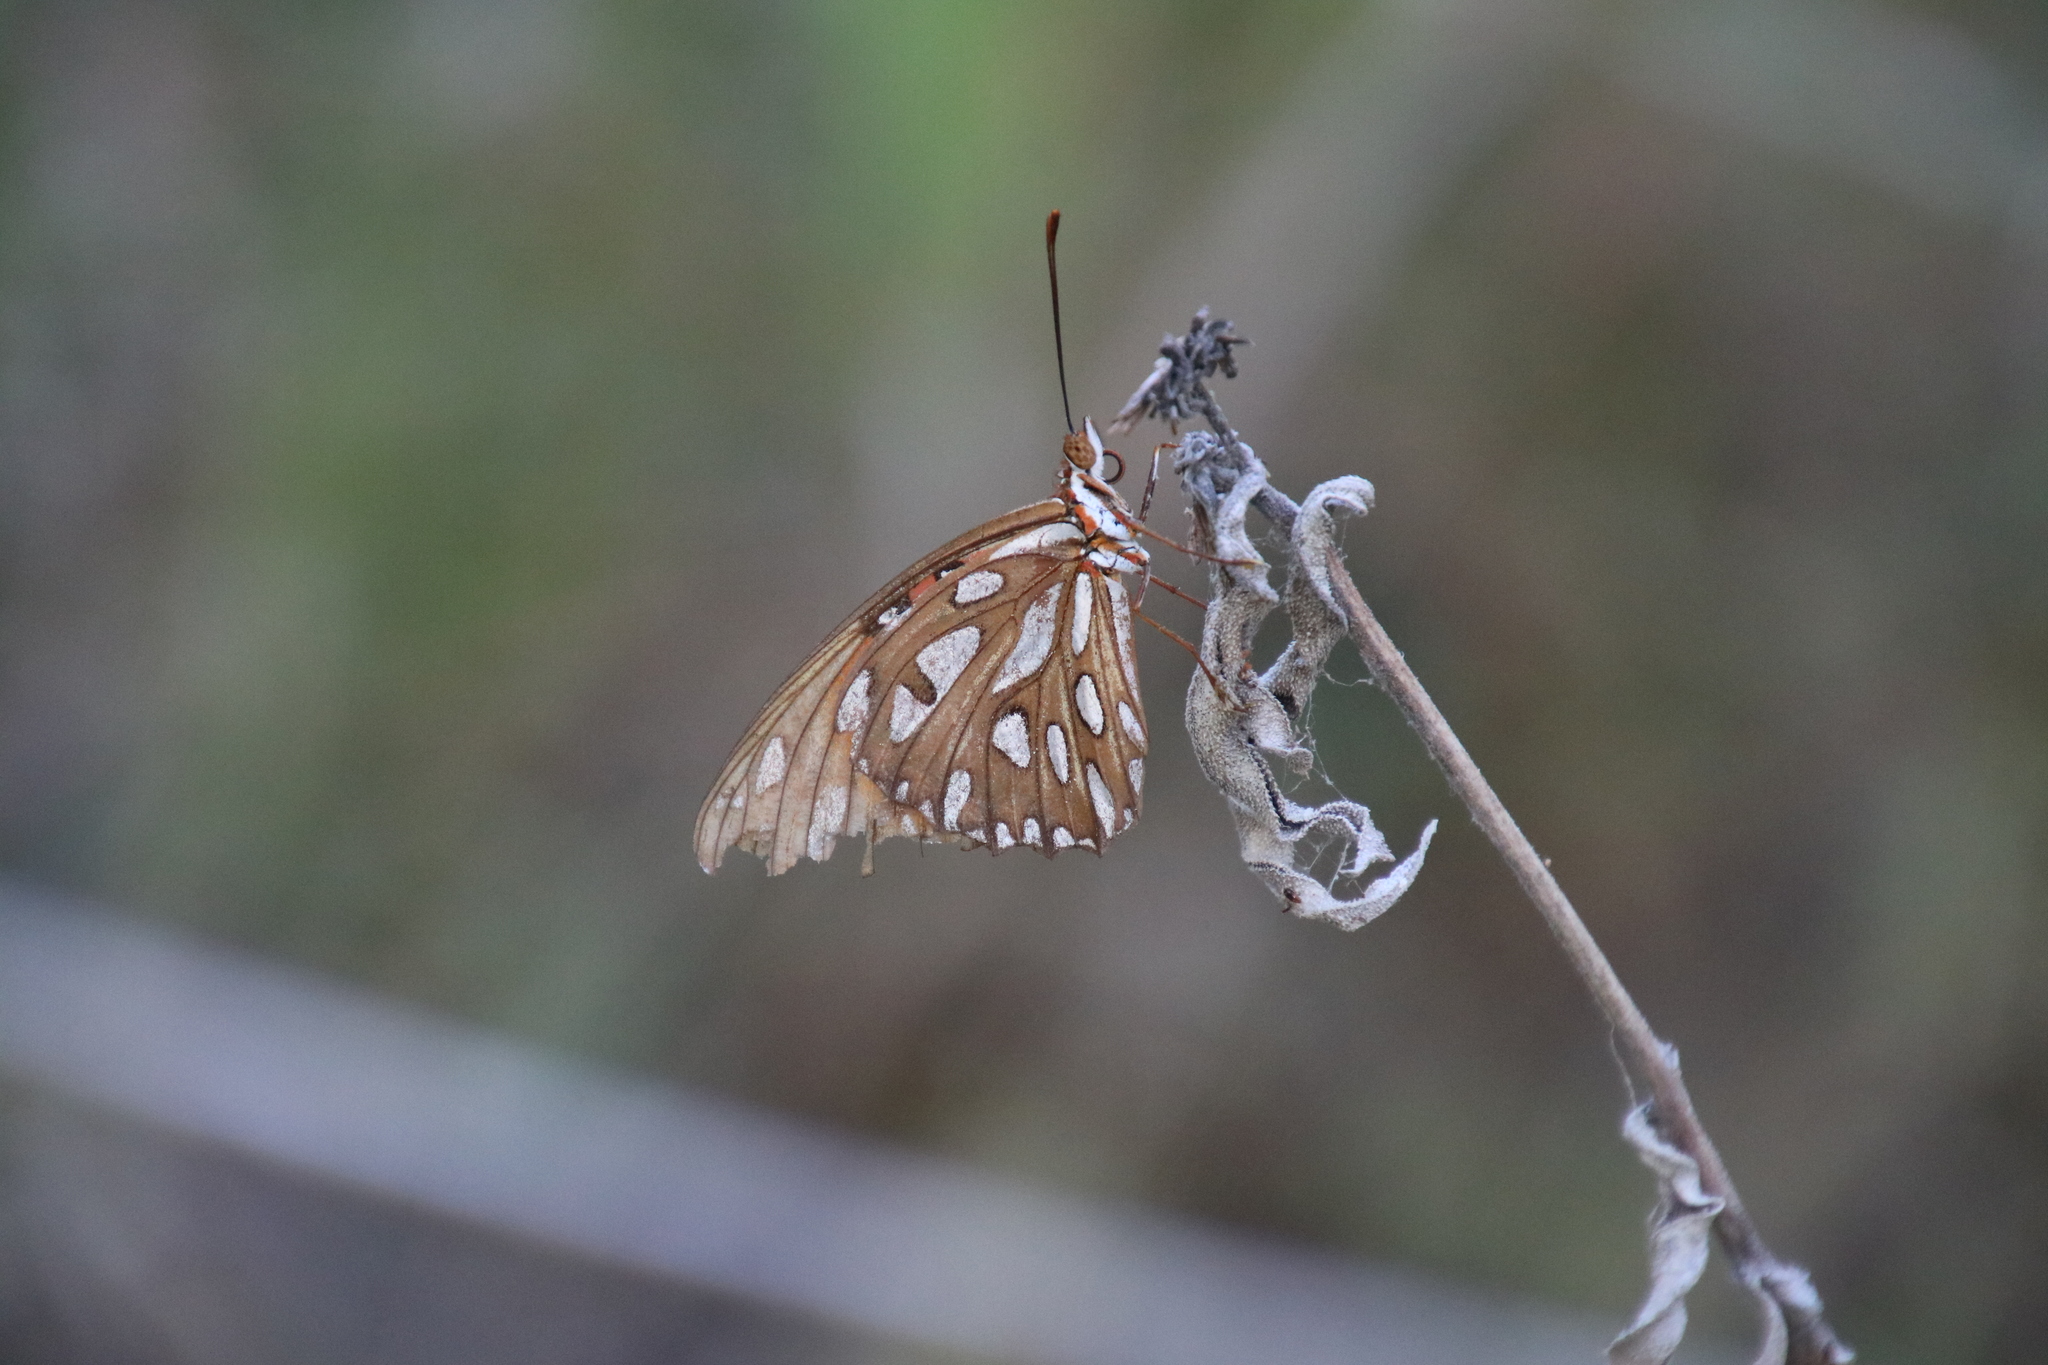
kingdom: Animalia
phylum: Arthropoda
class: Insecta
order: Lepidoptera
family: Nymphalidae
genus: Dione
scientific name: Dione vanillae
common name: Gulf fritillary
